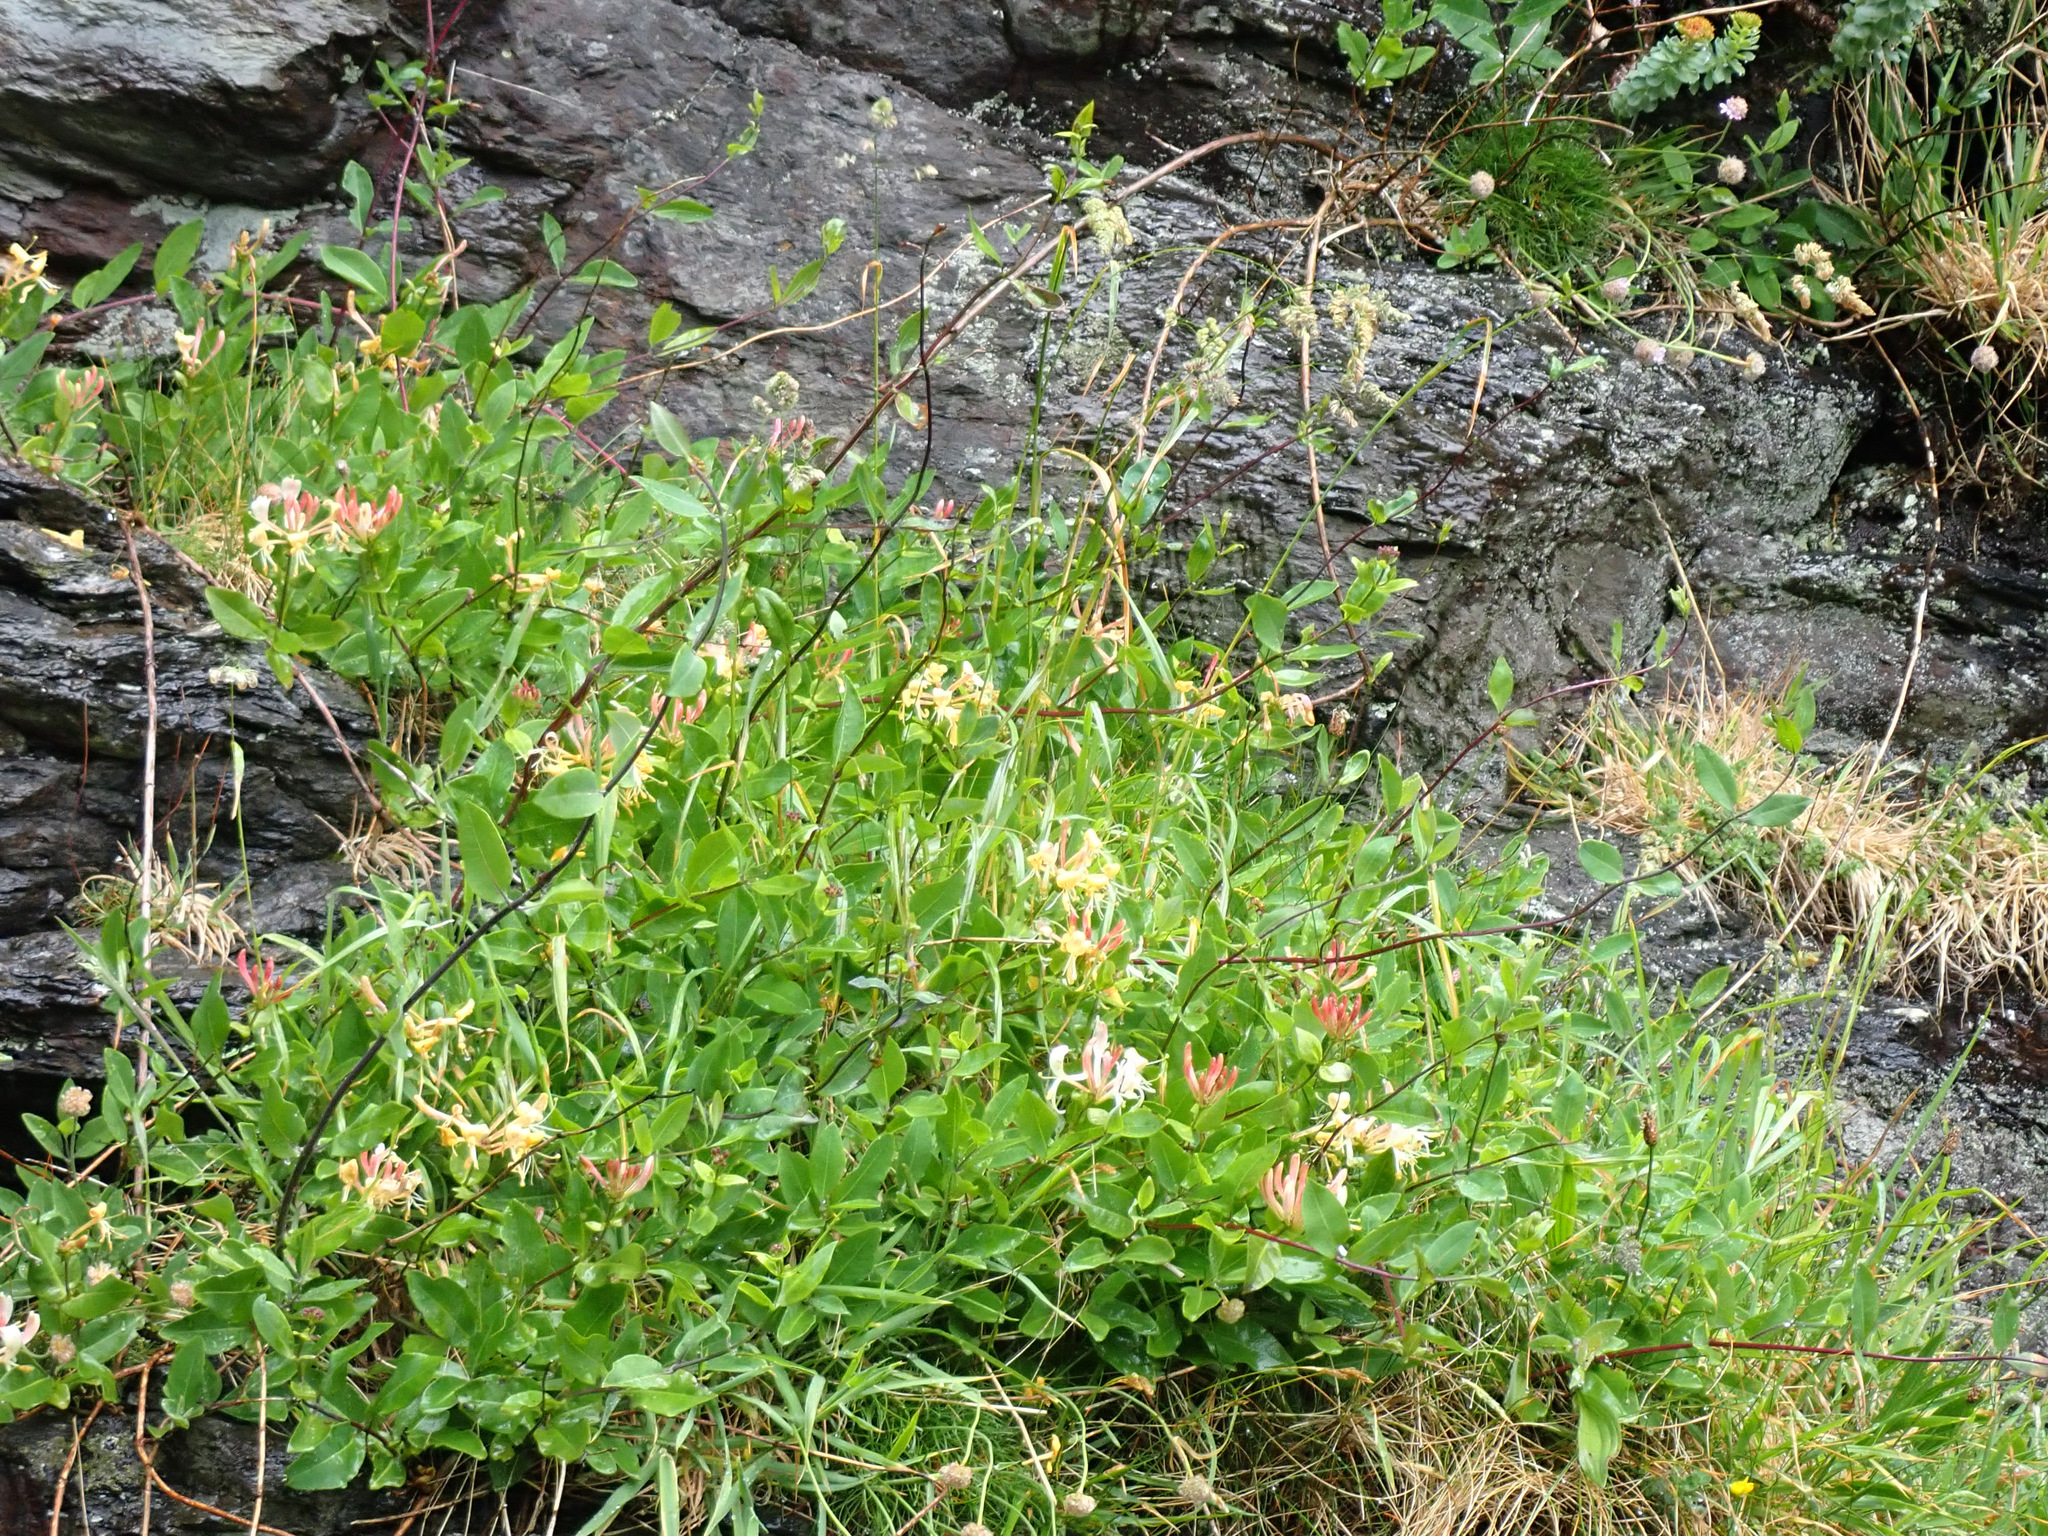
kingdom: Plantae
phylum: Tracheophyta
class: Magnoliopsida
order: Dipsacales
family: Caprifoliaceae
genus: Lonicera
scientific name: Lonicera periclymenum
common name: European honeysuckle
